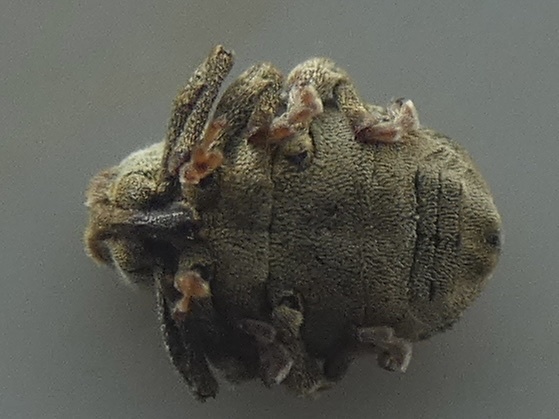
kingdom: Animalia
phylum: Arthropoda
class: Insecta
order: Coleoptera
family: Curculionidae
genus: Parethelcus
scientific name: Parethelcus pollinarius
